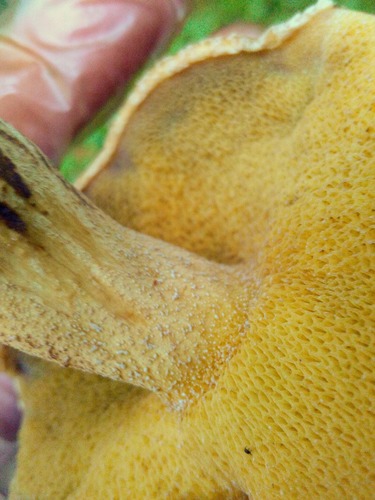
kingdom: Fungi
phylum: Basidiomycota
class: Agaricomycetes
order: Boletales
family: Suillaceae
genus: Suillus
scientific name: Suillus punctipes
